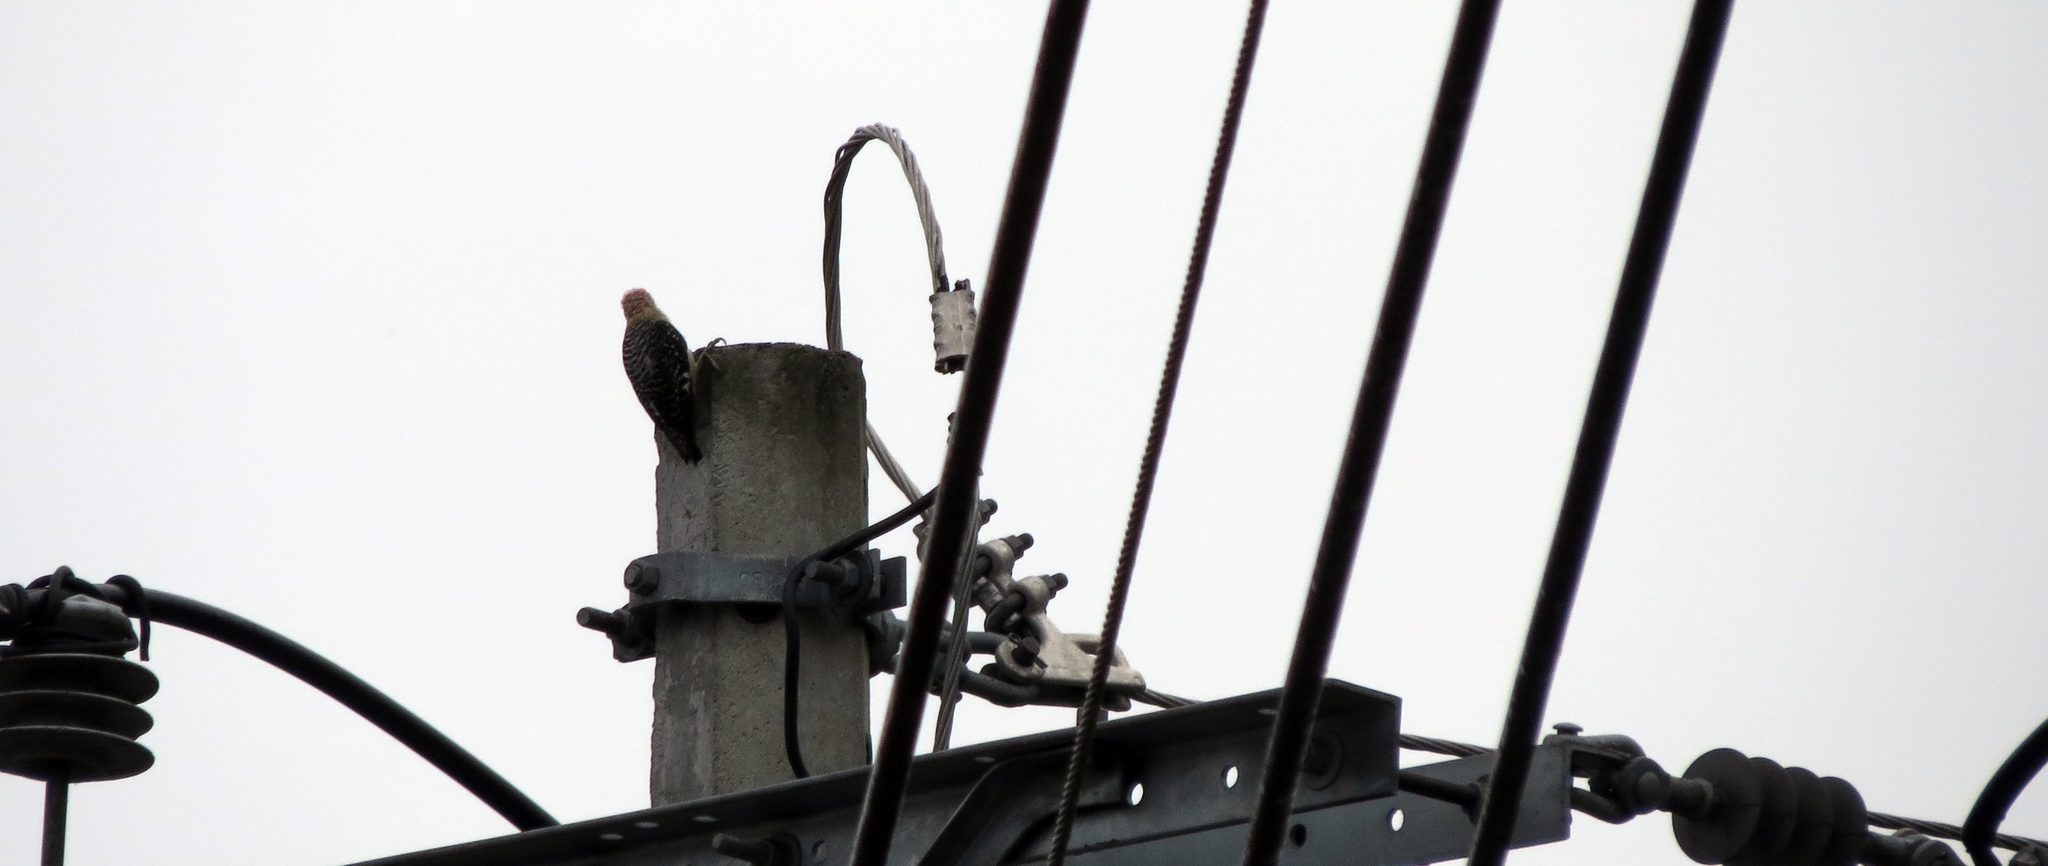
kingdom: Animalia
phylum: Chordata
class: Aves
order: Piciformes
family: Picidae
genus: Melanerpes
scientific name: Melanerpes rubricapillus
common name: Red-crowned woodpecker
